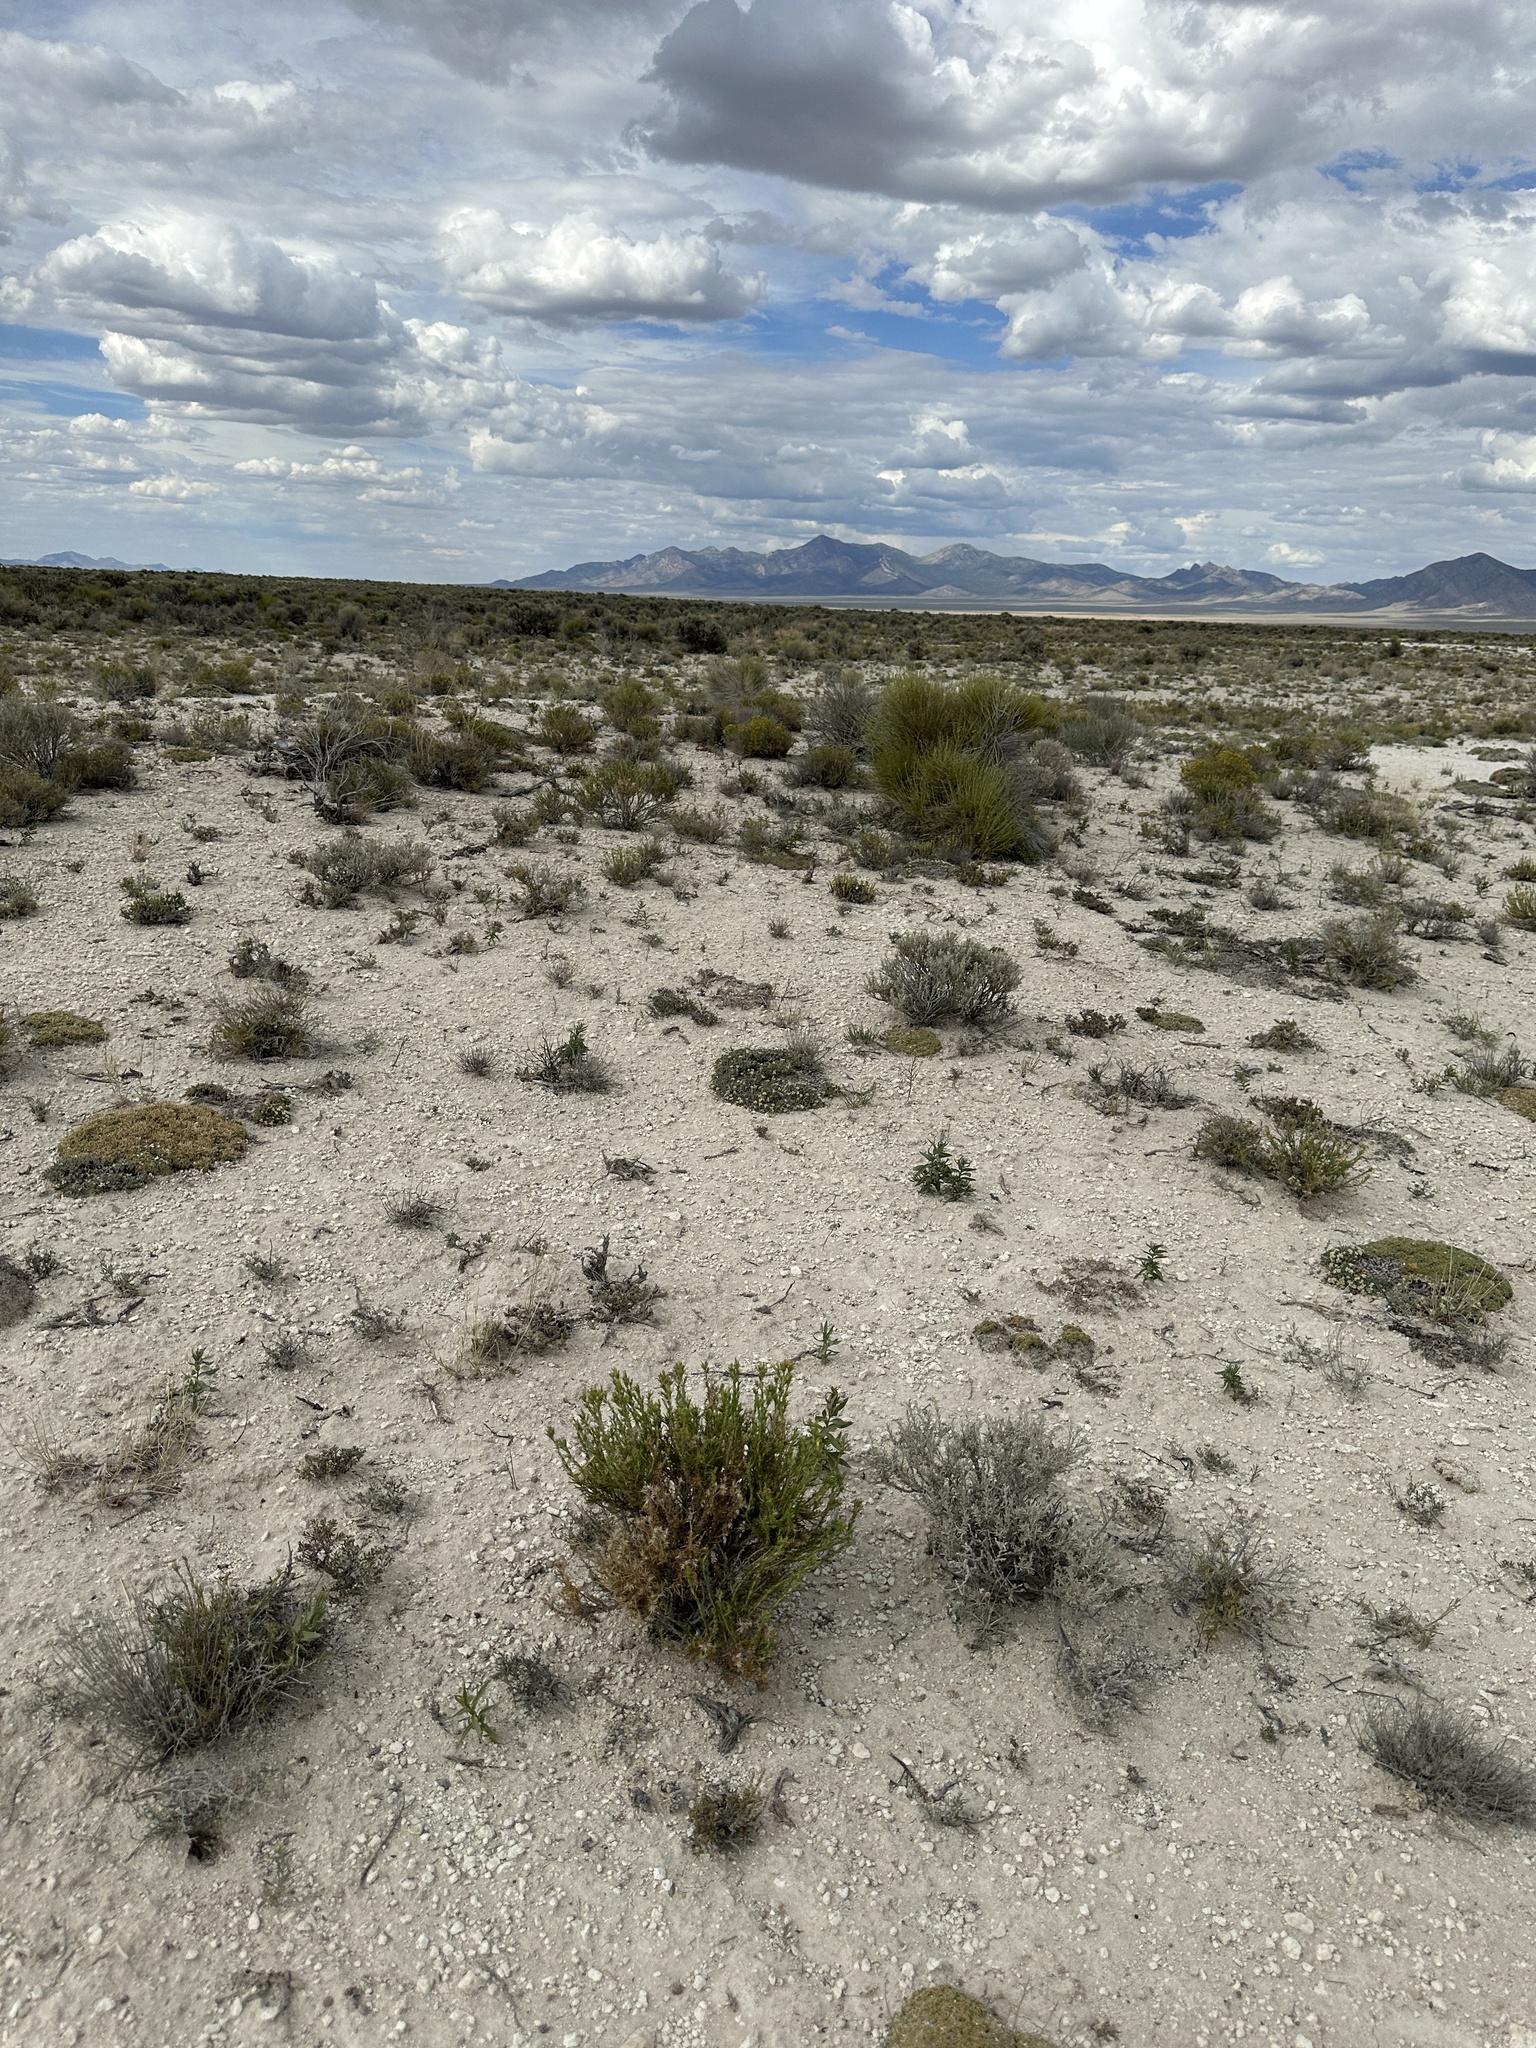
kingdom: Plantae
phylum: Tracheophyta
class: Magnoliopsida
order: Asterales
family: Asteraceae
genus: Ericameria
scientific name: Ericameria parryi
